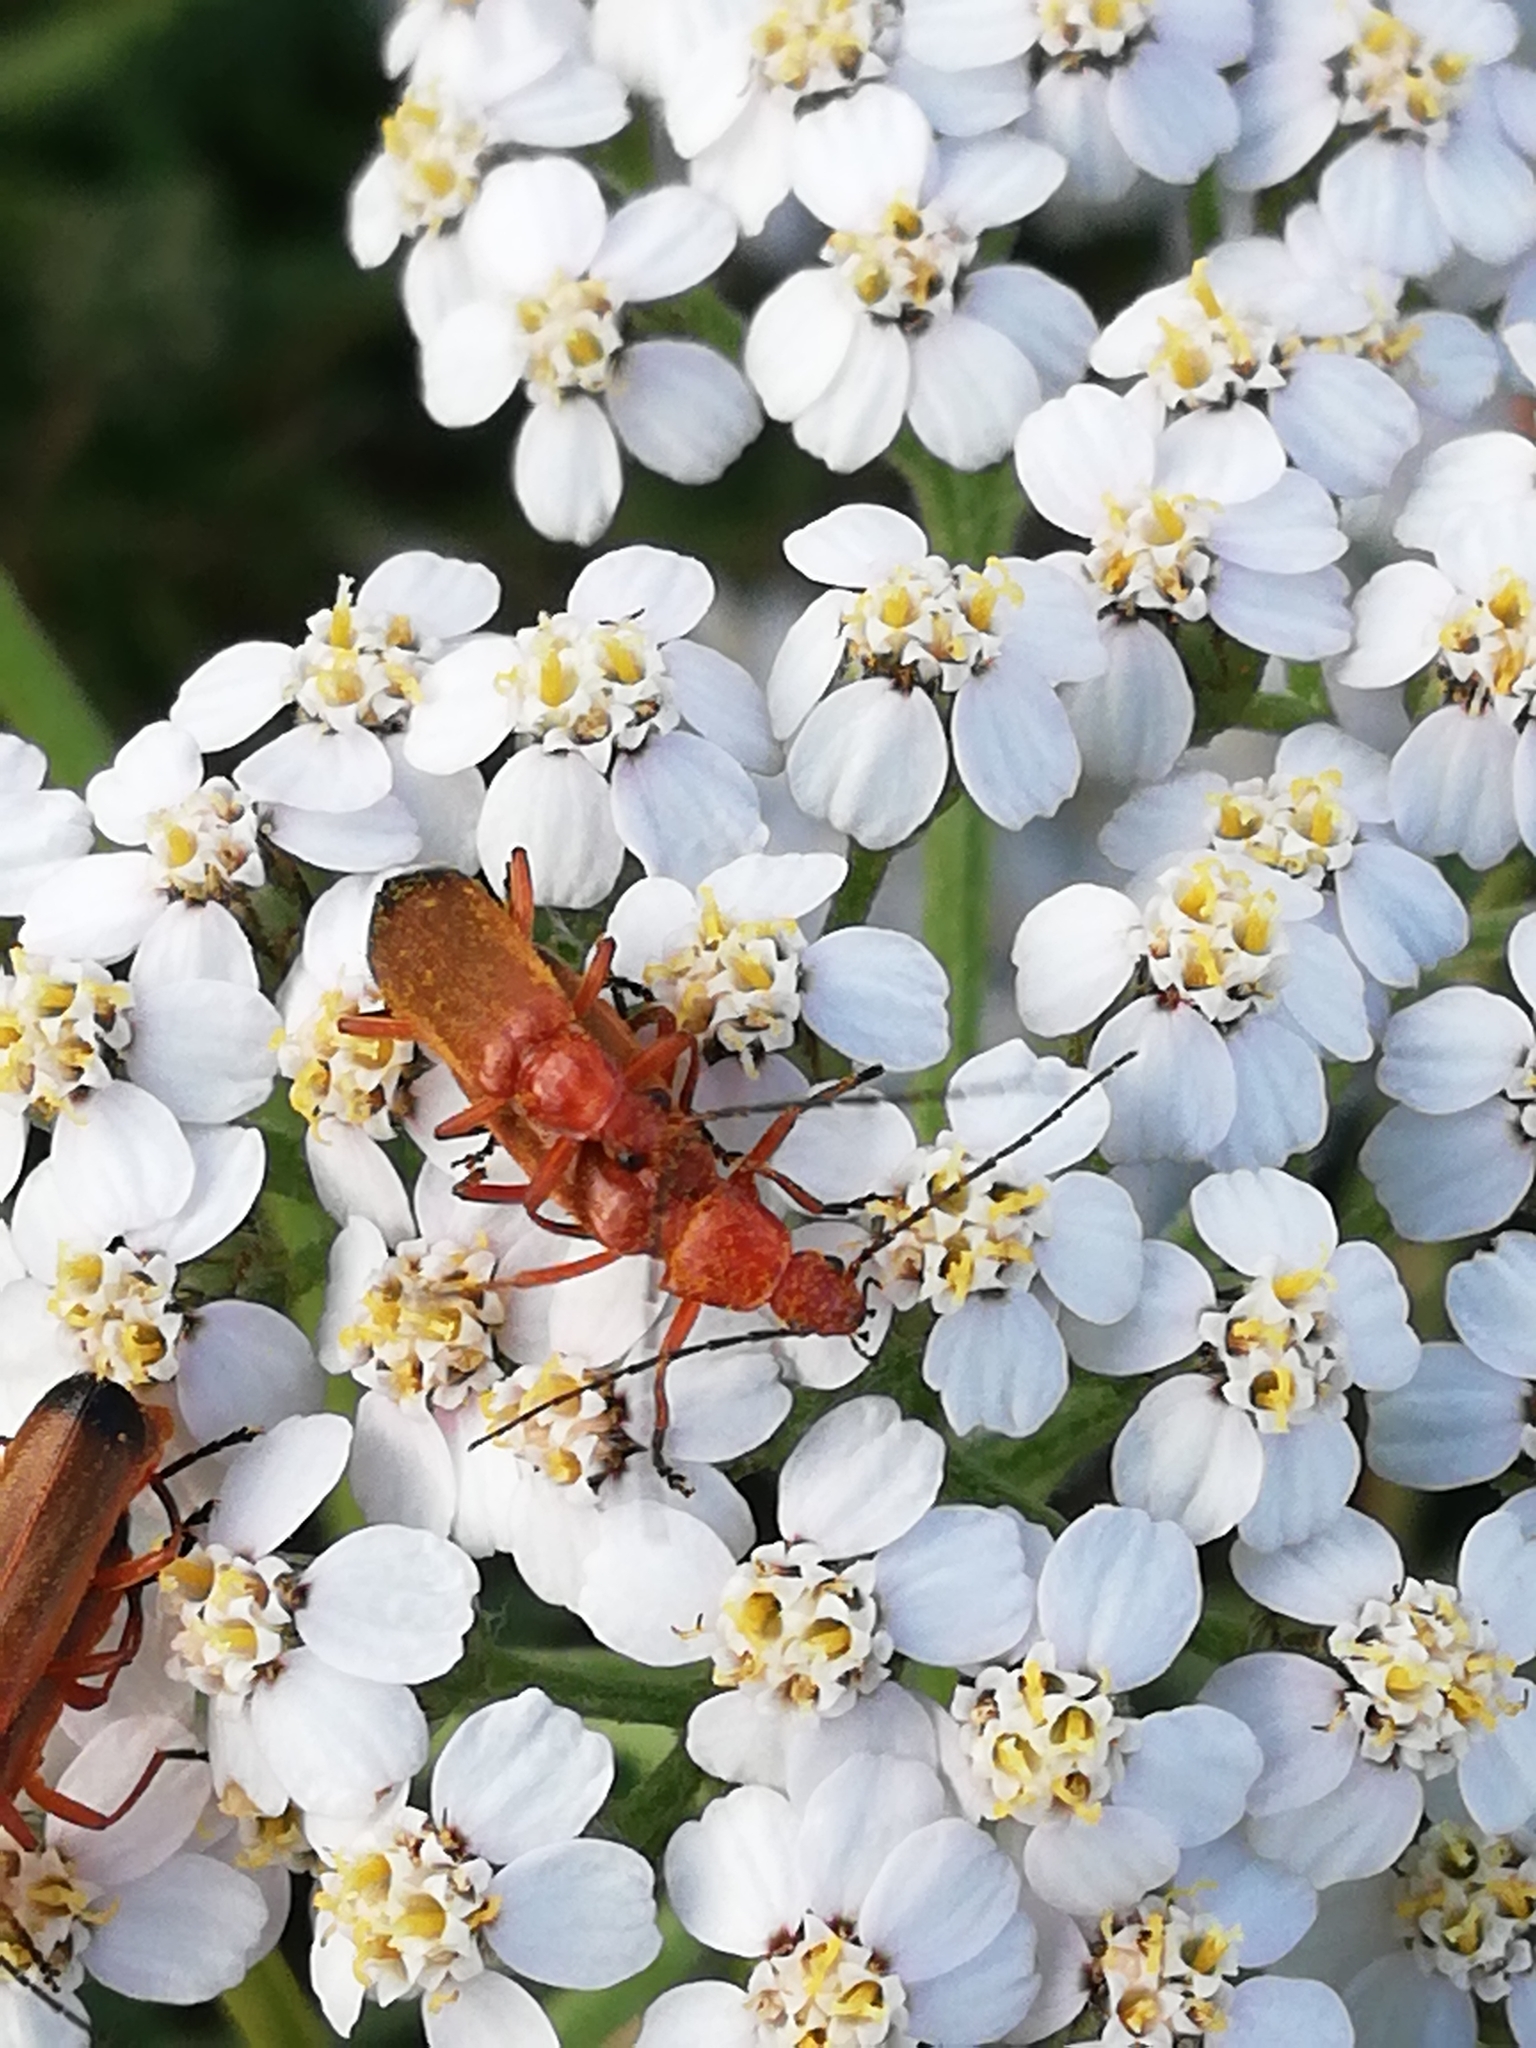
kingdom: Animalia
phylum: Arthropoda
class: Insecta
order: Coleoptera
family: Cantharidae
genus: Rhagonycha
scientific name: Rhagonycha fulva
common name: Common red soldier beetle
